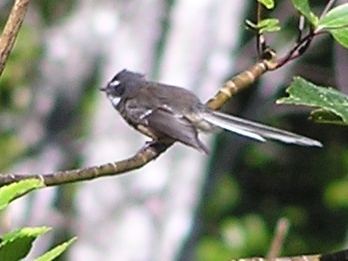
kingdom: Animalia
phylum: Chordata
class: Aves
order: Passeriformes
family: Rhipiduridae
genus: Rhipidura
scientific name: Rhipidura fuliginosa
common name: New zealand fantail
